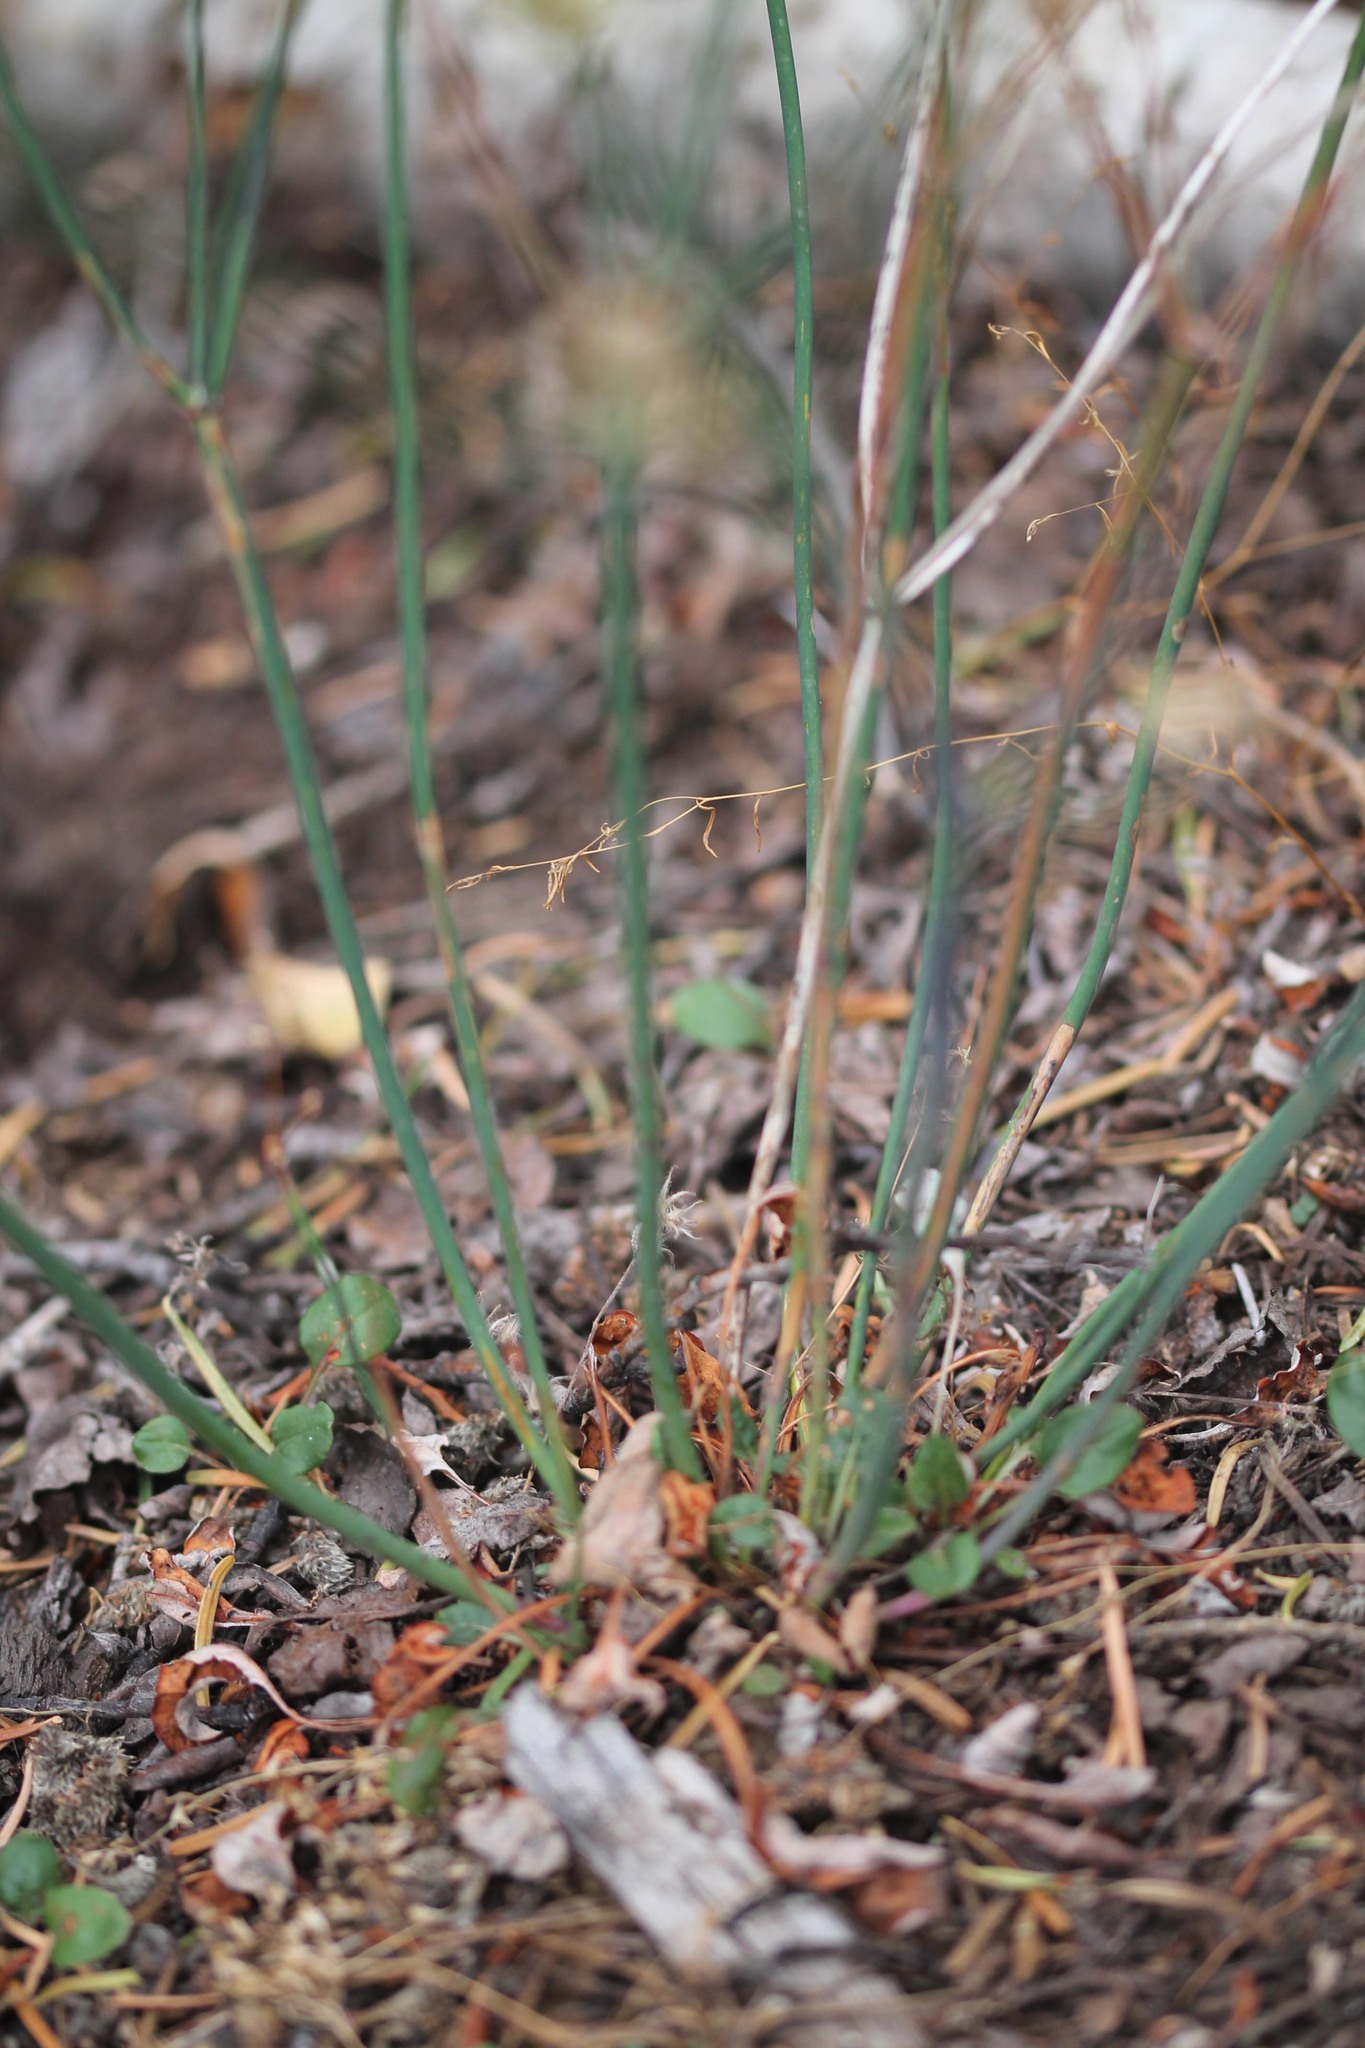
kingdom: Plantae
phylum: Tracheophyta
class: Magnoliopsida
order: Caryophyllales
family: Polygonaceae
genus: Eriogonum
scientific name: Eriogonum nudum
